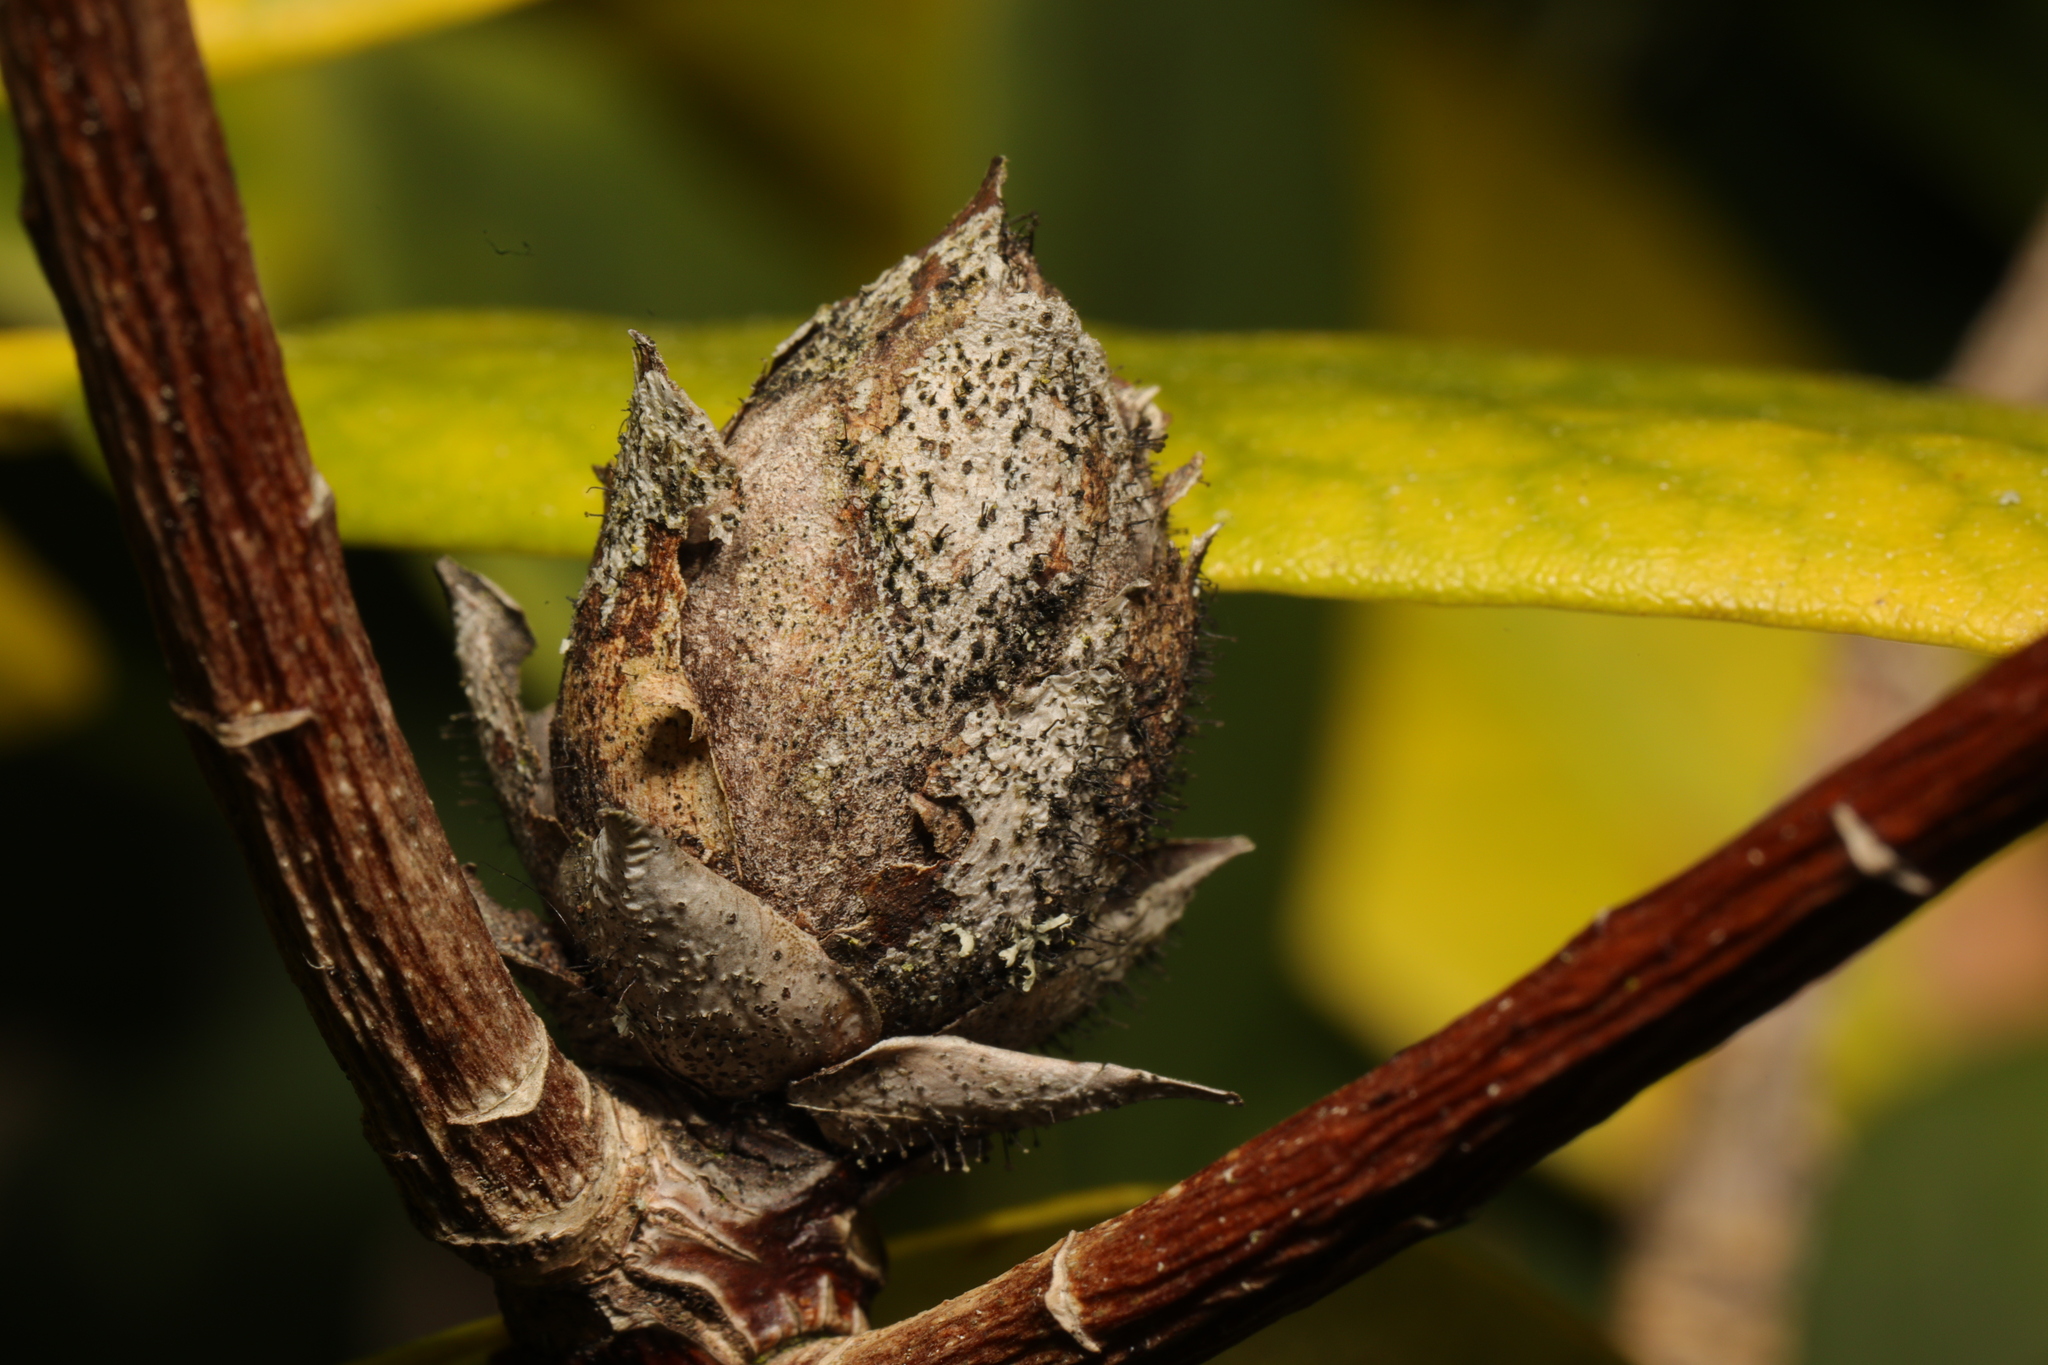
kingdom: Fungi
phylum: Ascomycota
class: Dothideomycetes
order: Pleosporales
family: Melanommataceae
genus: Seifertia
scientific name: Seifertia azaleae
